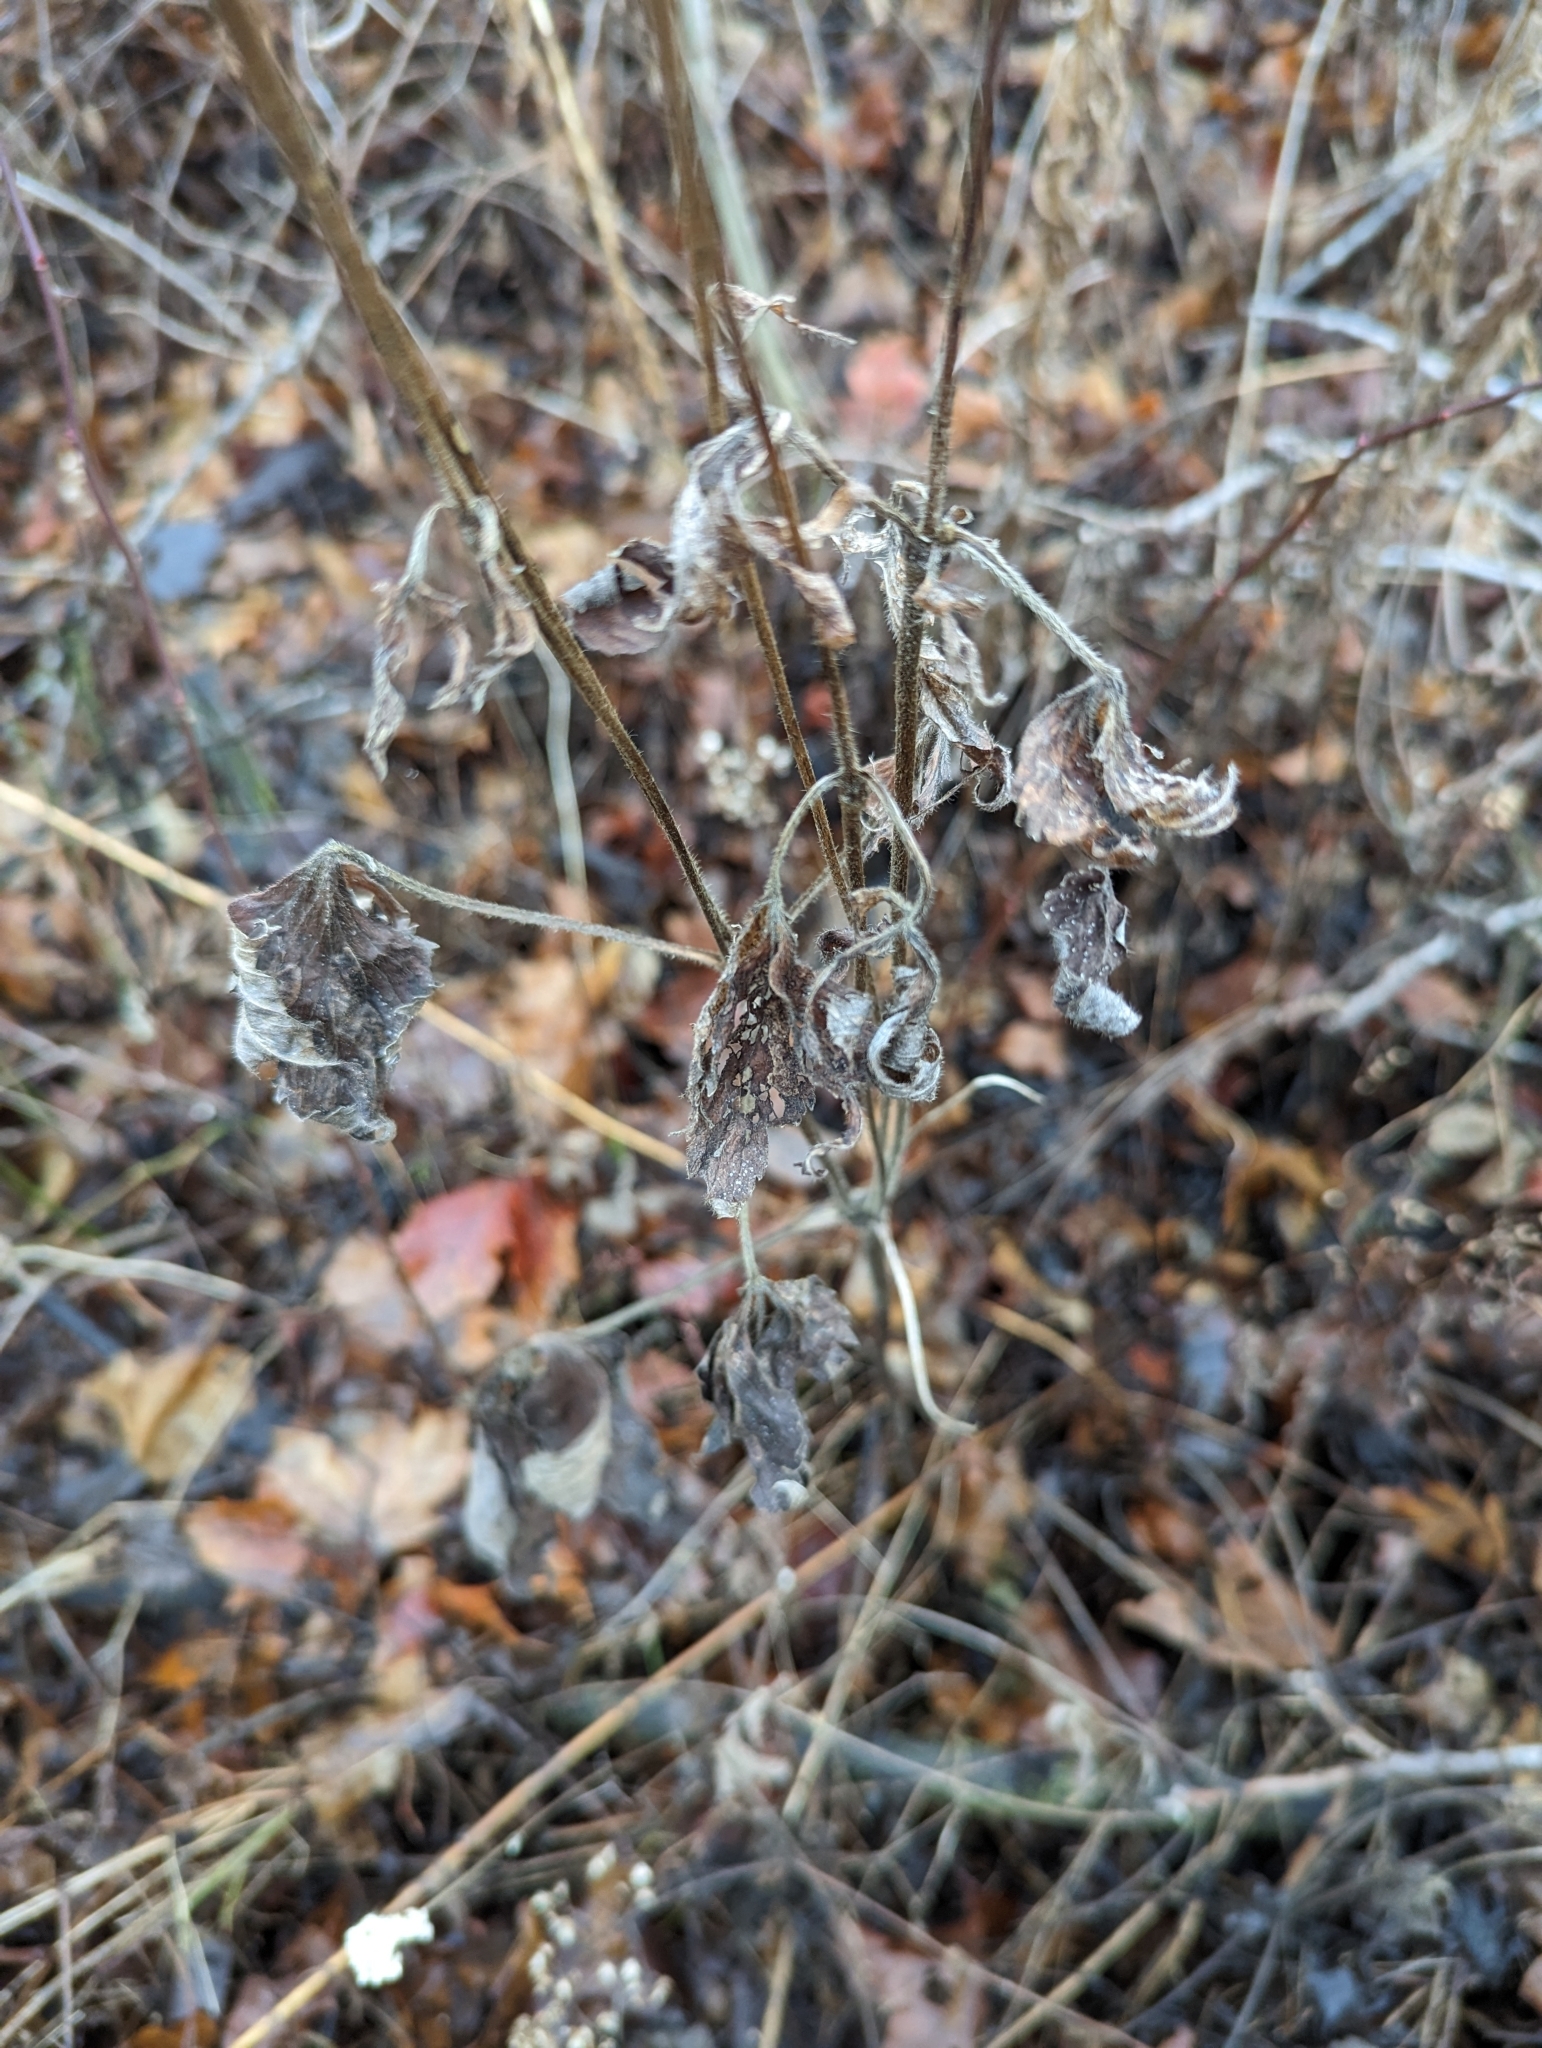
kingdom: Plantae
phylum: Tracheophyta
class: Magnoliopsida
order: Ranunculales
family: Ranunculaceae
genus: Anemone
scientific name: Anemone virginiana
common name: Tall anemone
